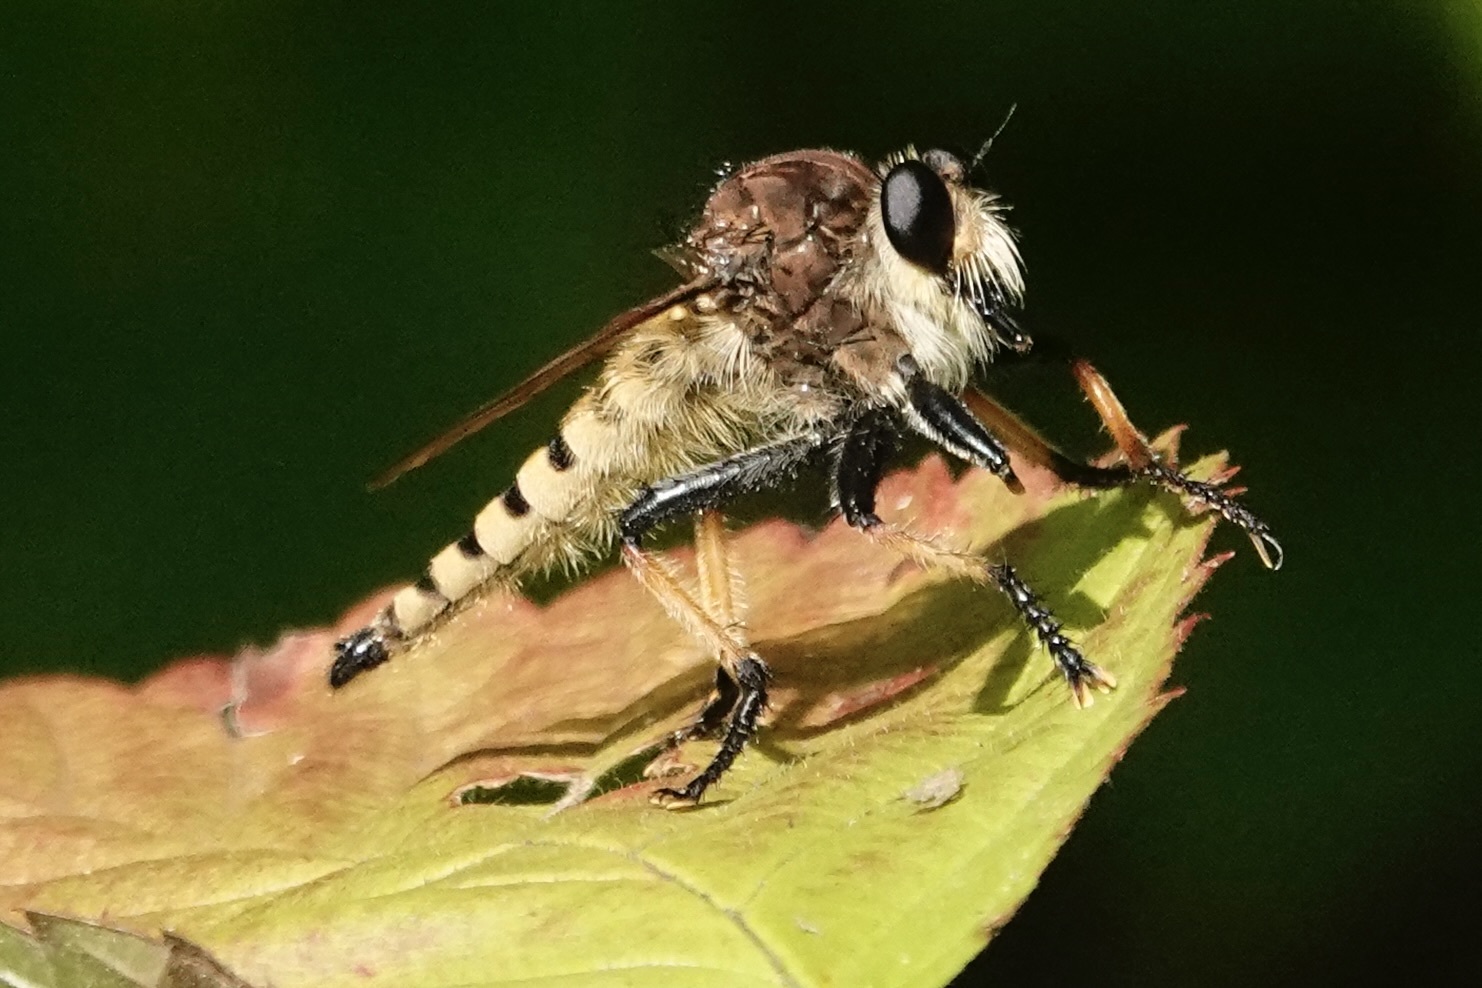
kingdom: Animalia
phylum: Arthropoda
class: Insecta
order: Diptera
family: Asilidae
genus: Promachus
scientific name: Promachus rufipes
